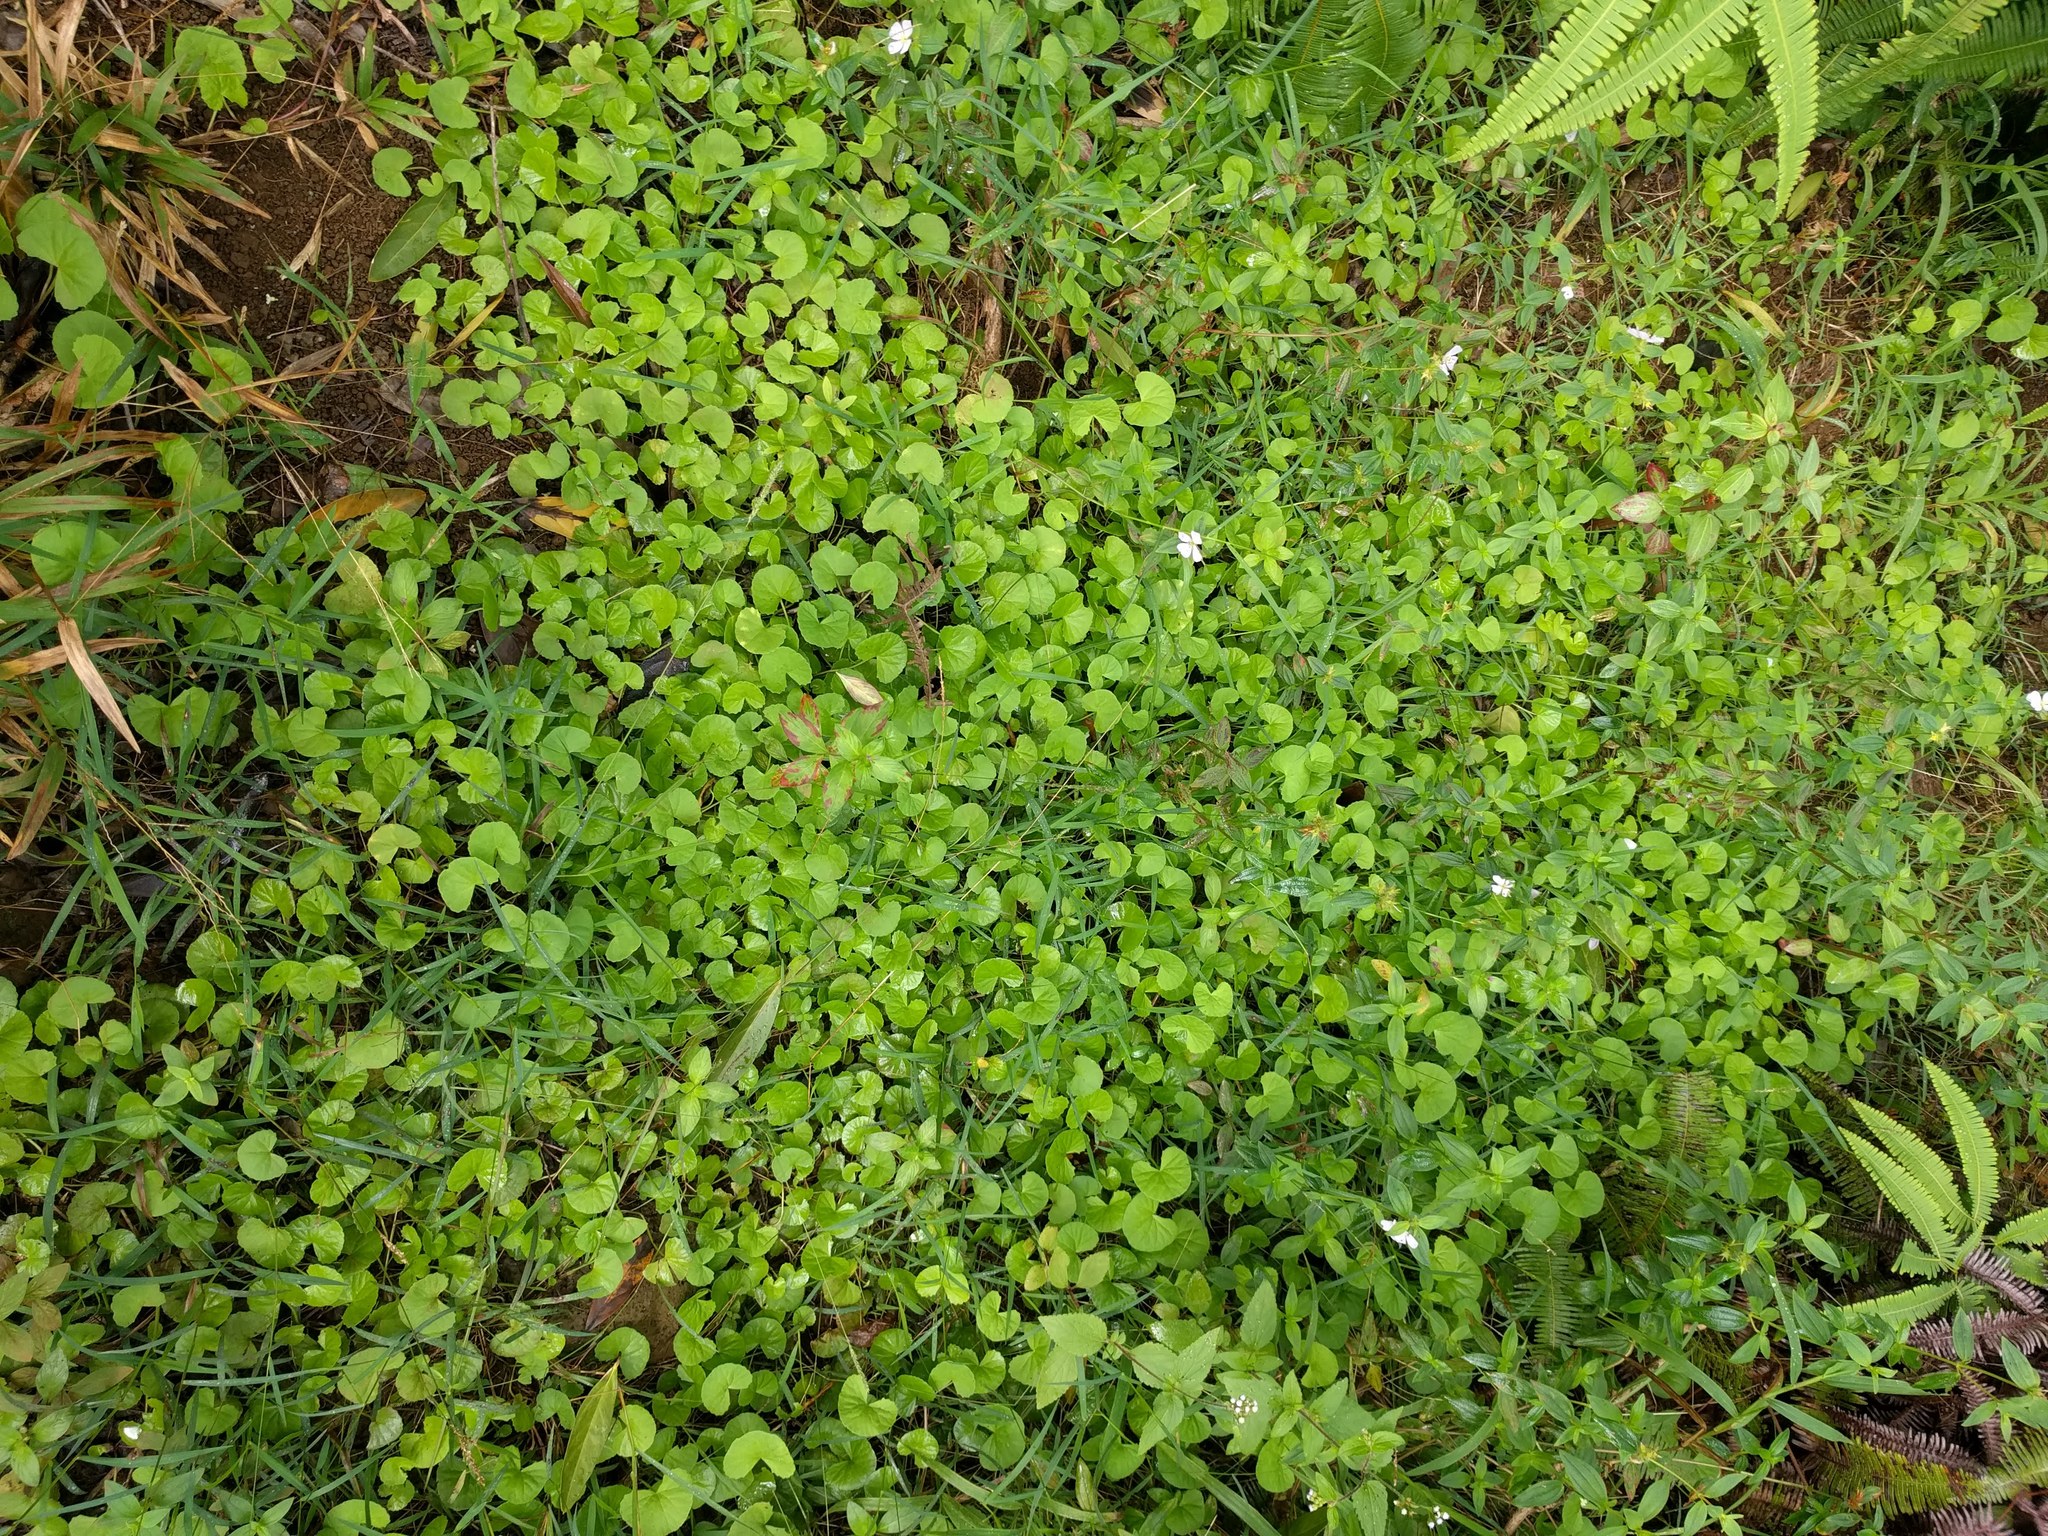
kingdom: Plantae
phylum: Tracheophyta
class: Magnoliopsida
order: Apiales
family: Apiaceae
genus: Centella
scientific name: Centella asiatica
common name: Spadeleaf
